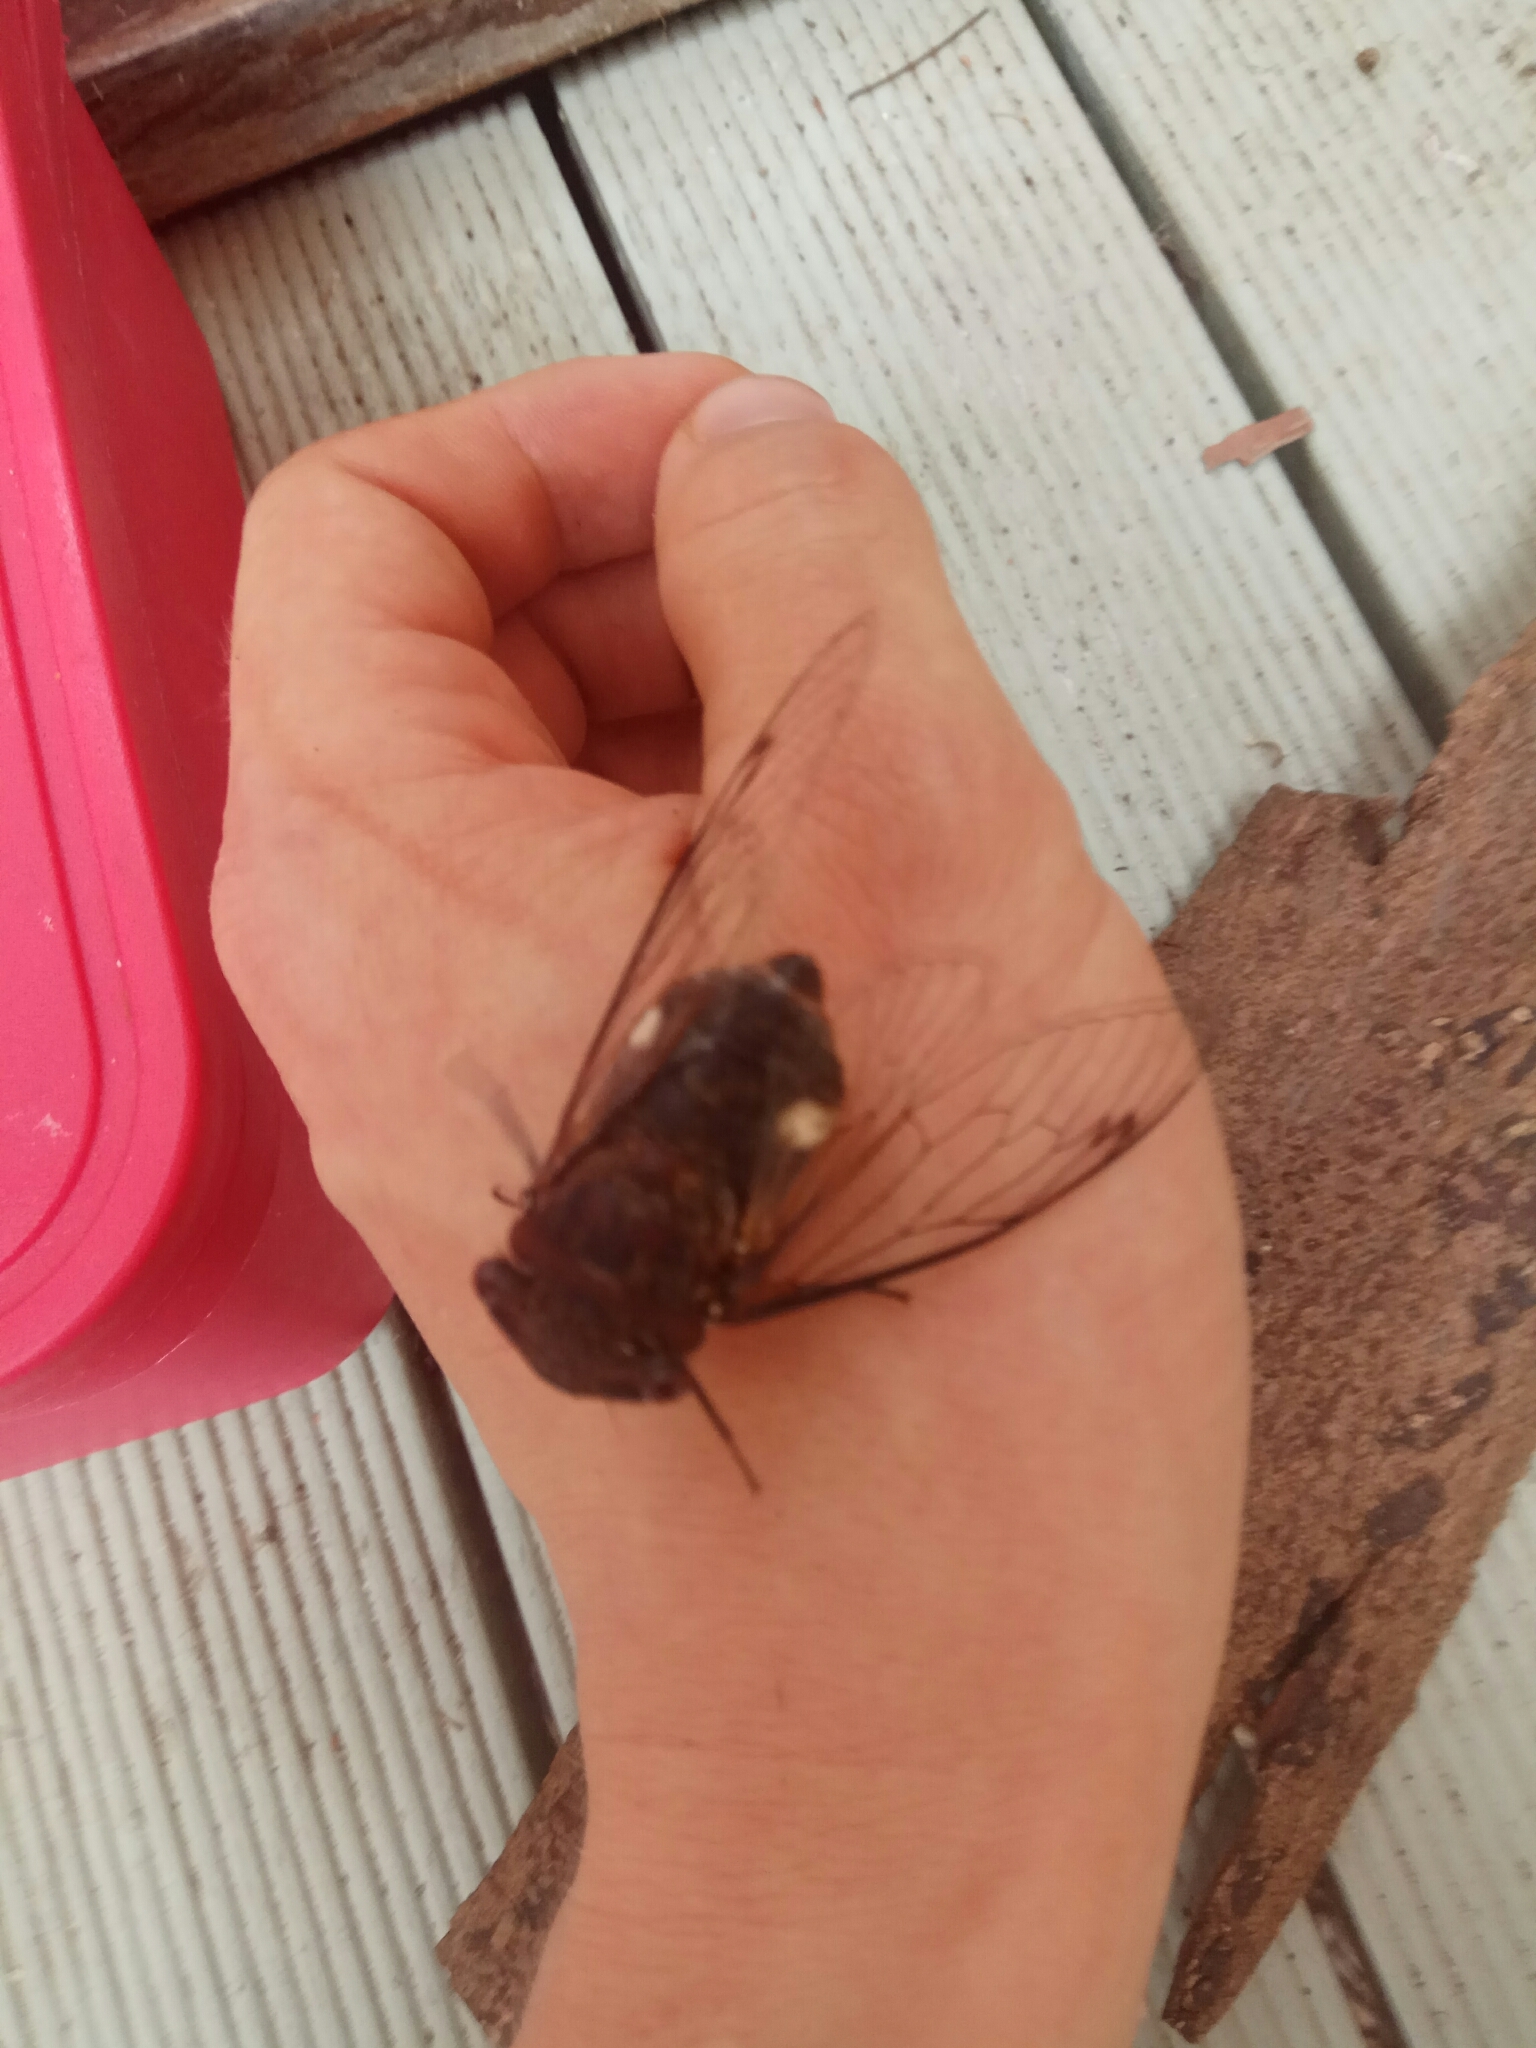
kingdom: Animalia
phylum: Arthropoda
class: Insecta
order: Hemiptera
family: Cicadidae
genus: Psaltoda
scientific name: Psaltoda plaga
